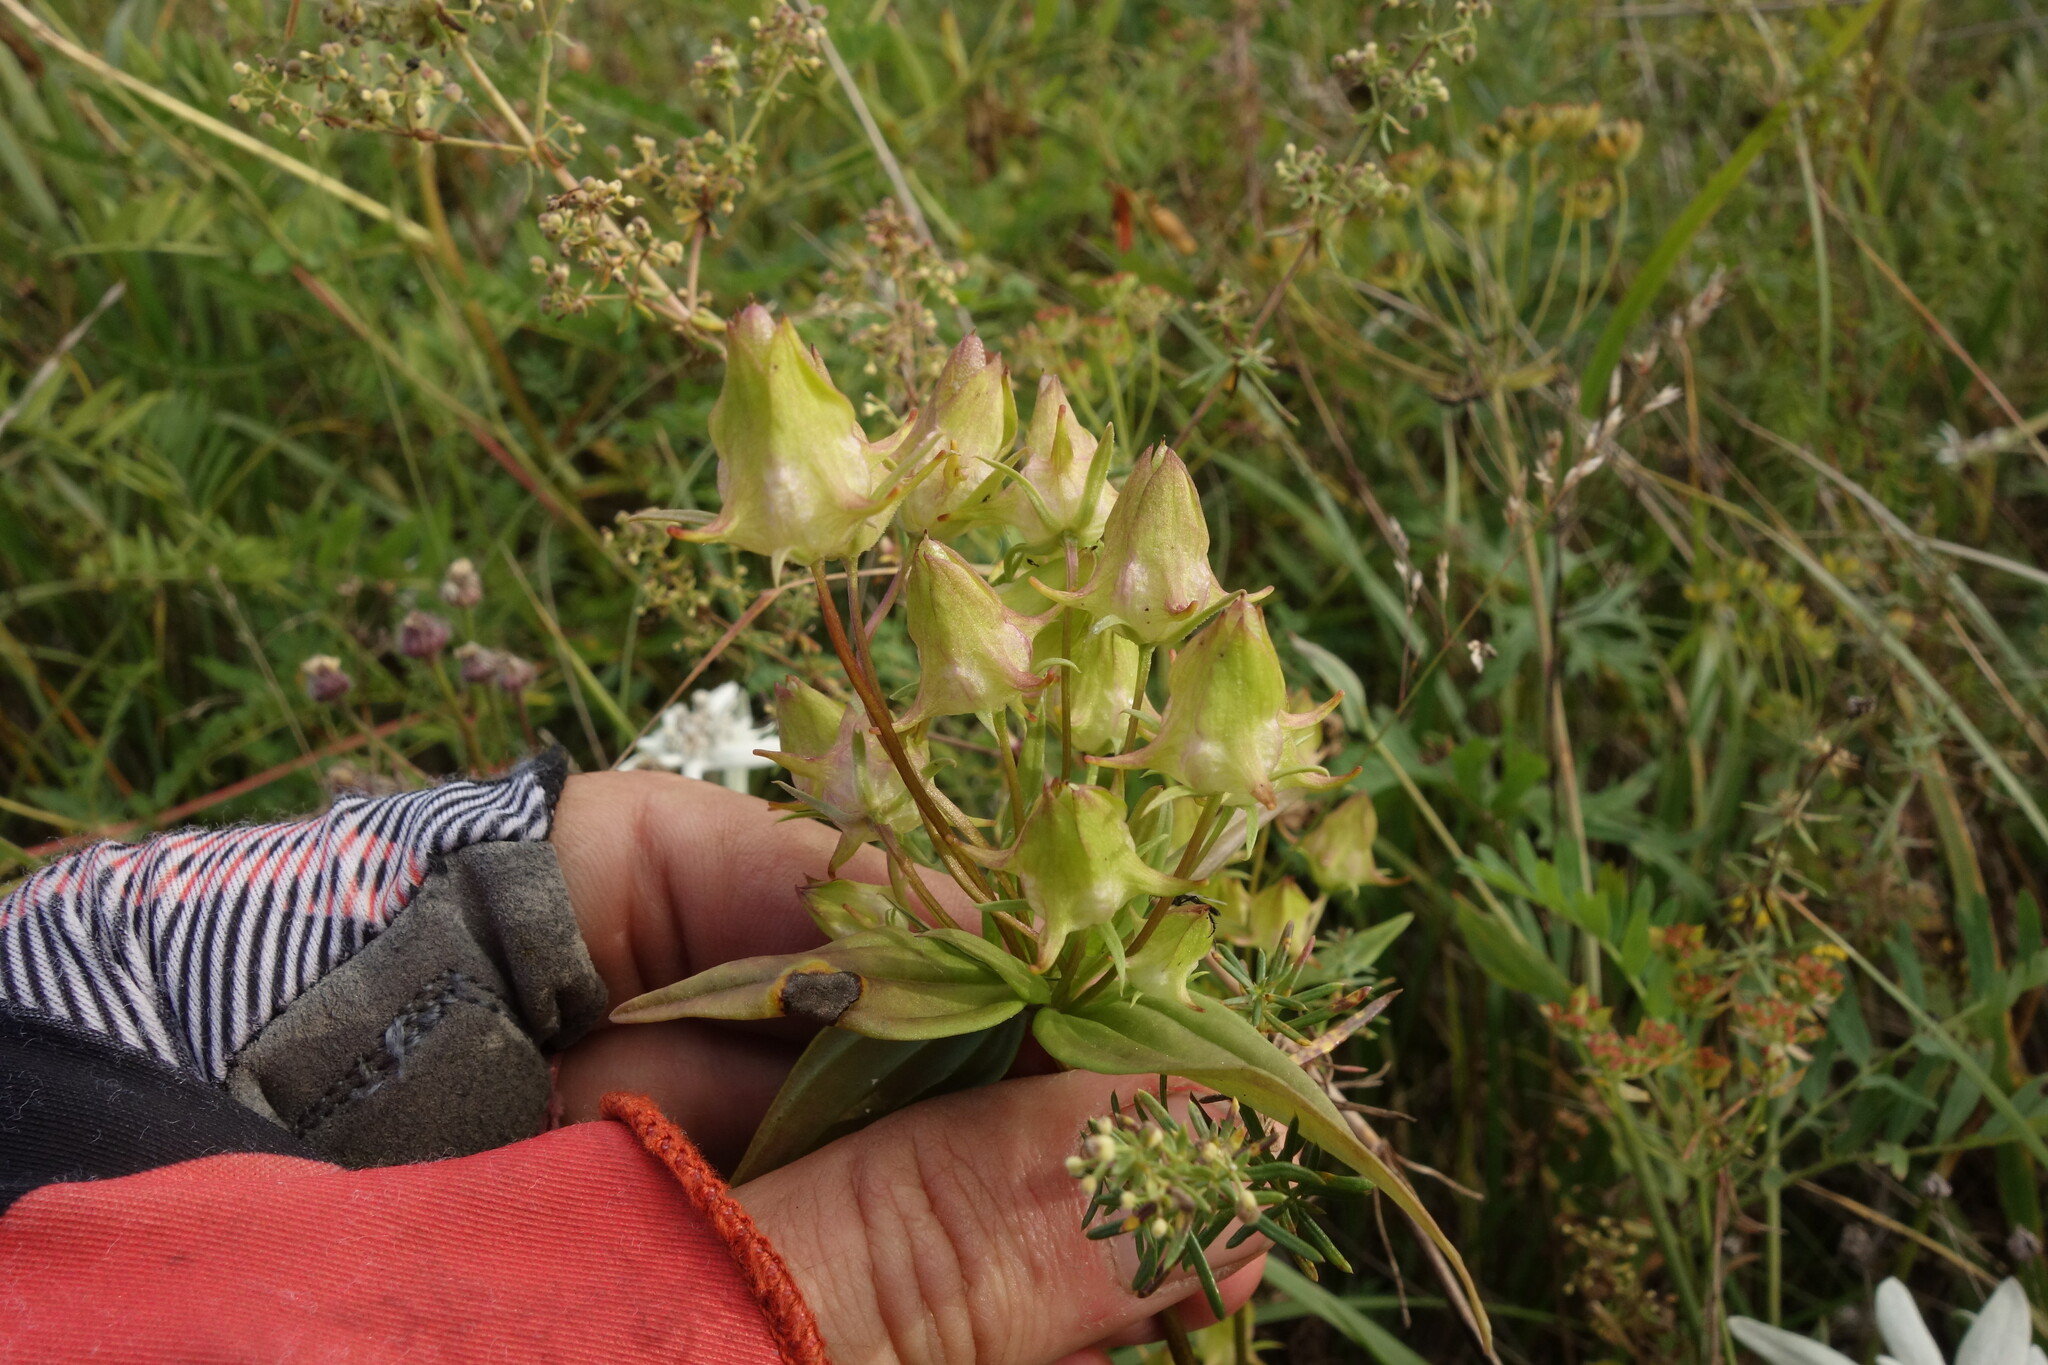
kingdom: Plantae
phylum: Tracheophyta
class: Magnoliopsida
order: Gentianales
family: Gentianaceae
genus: Halenia
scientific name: Halenia corniculata
